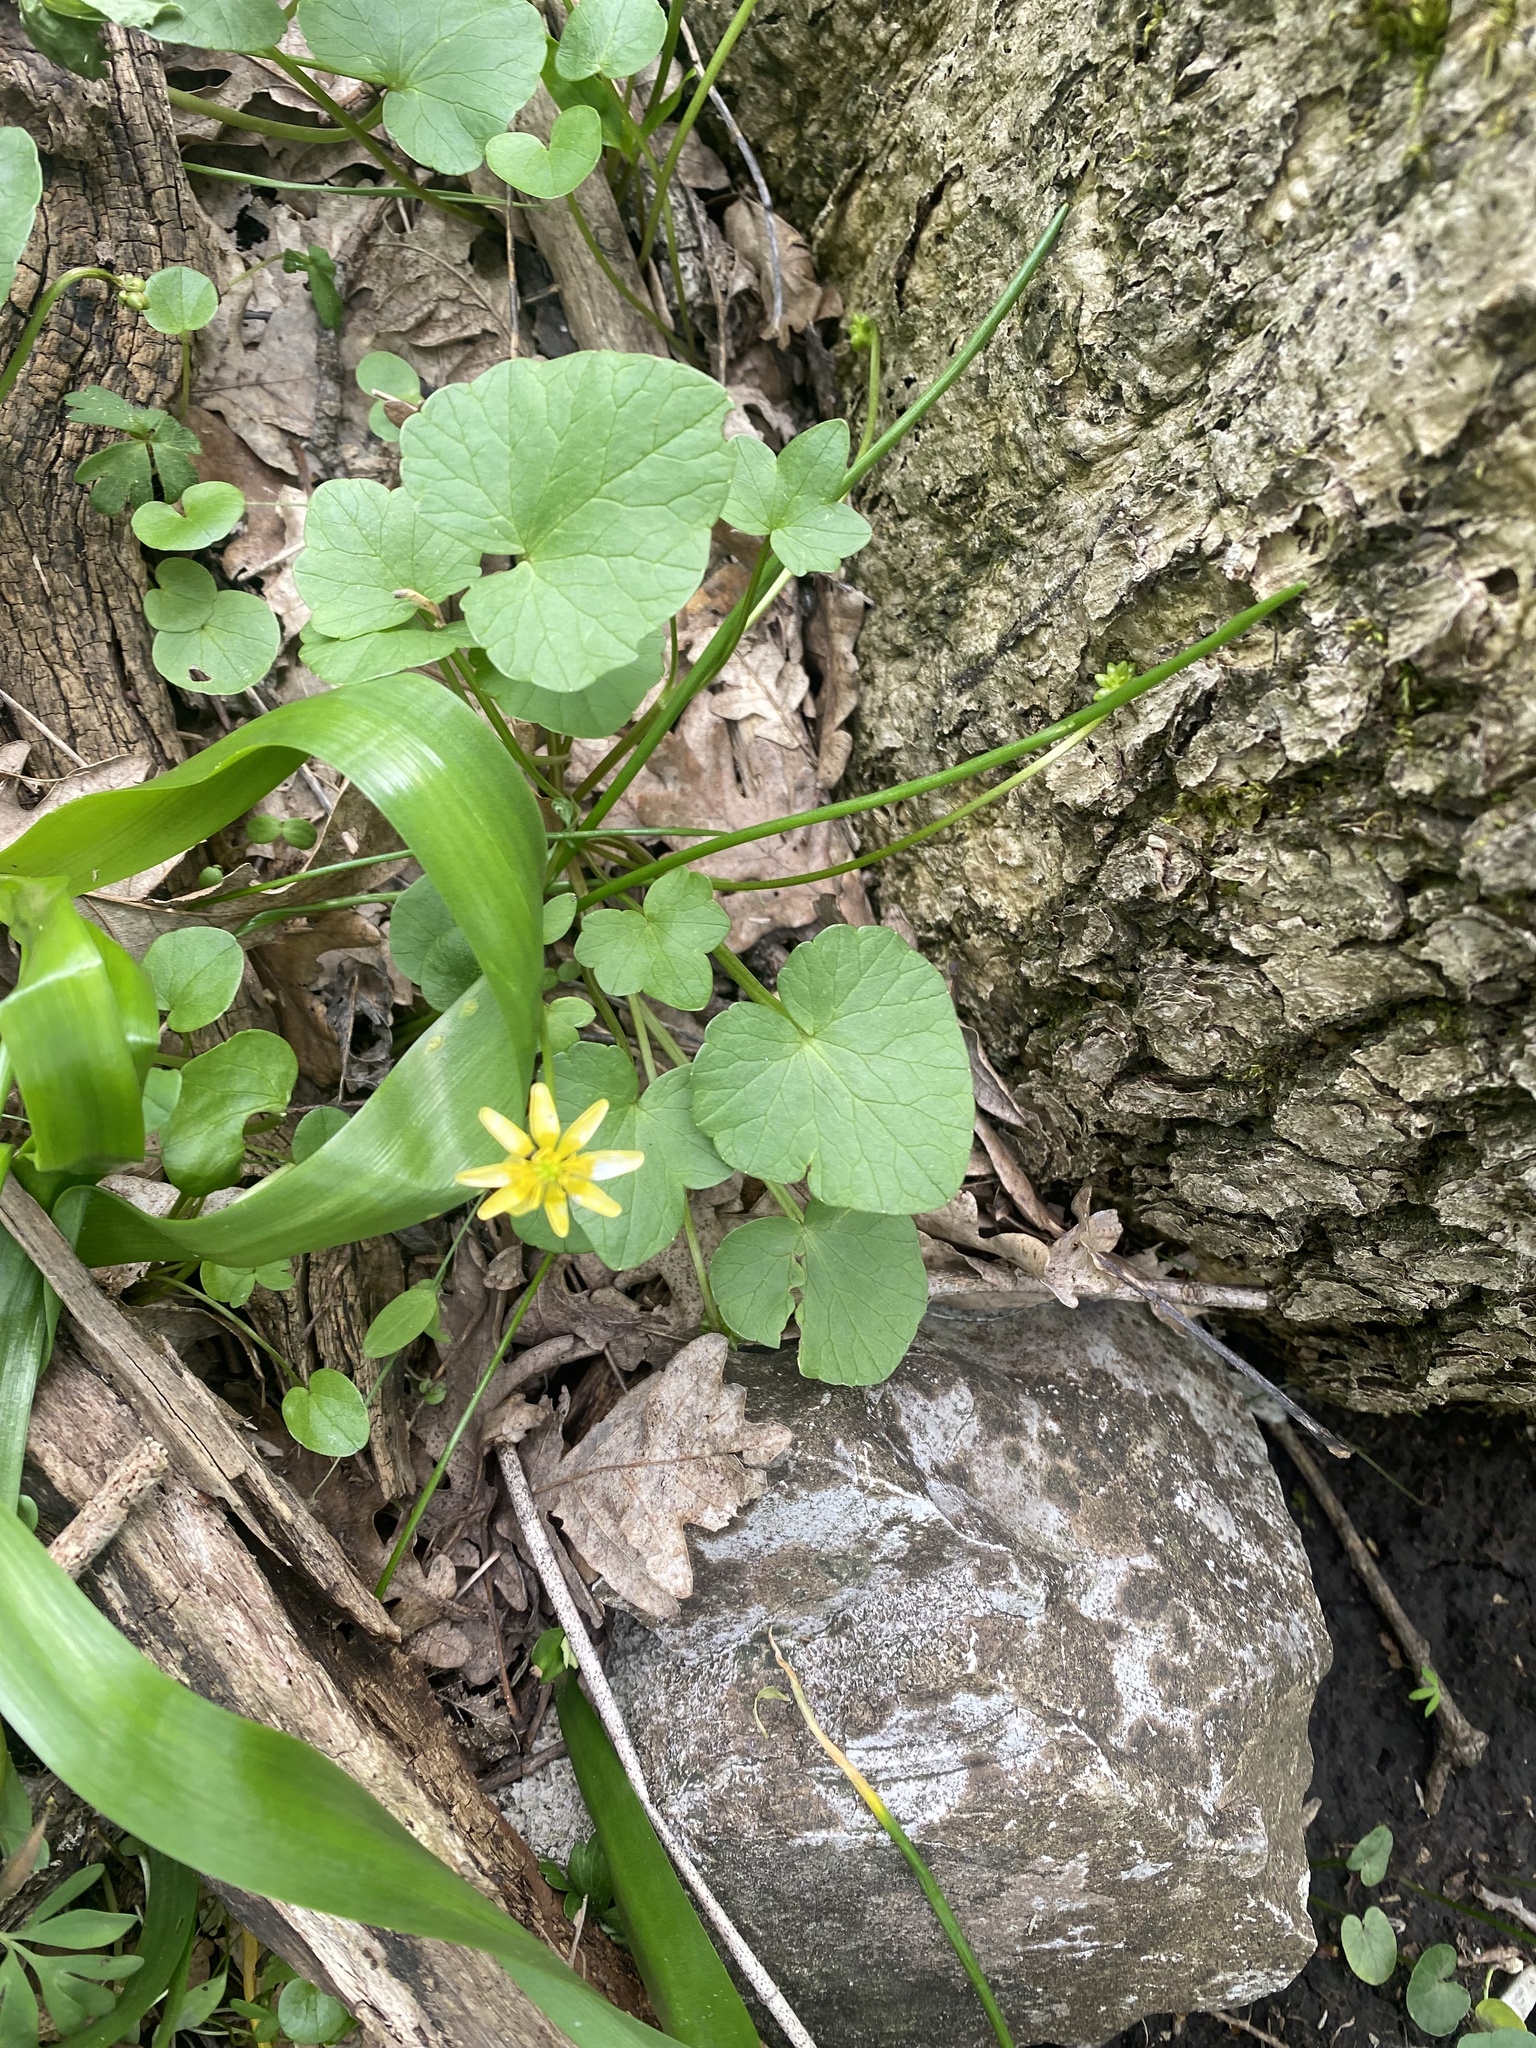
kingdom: Plantae
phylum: Tracheophyta
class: Magnoliopsida
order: Ranunculales
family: Ranunculaceae
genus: Ficaria
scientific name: Ficaria verna
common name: Lesser celandine
